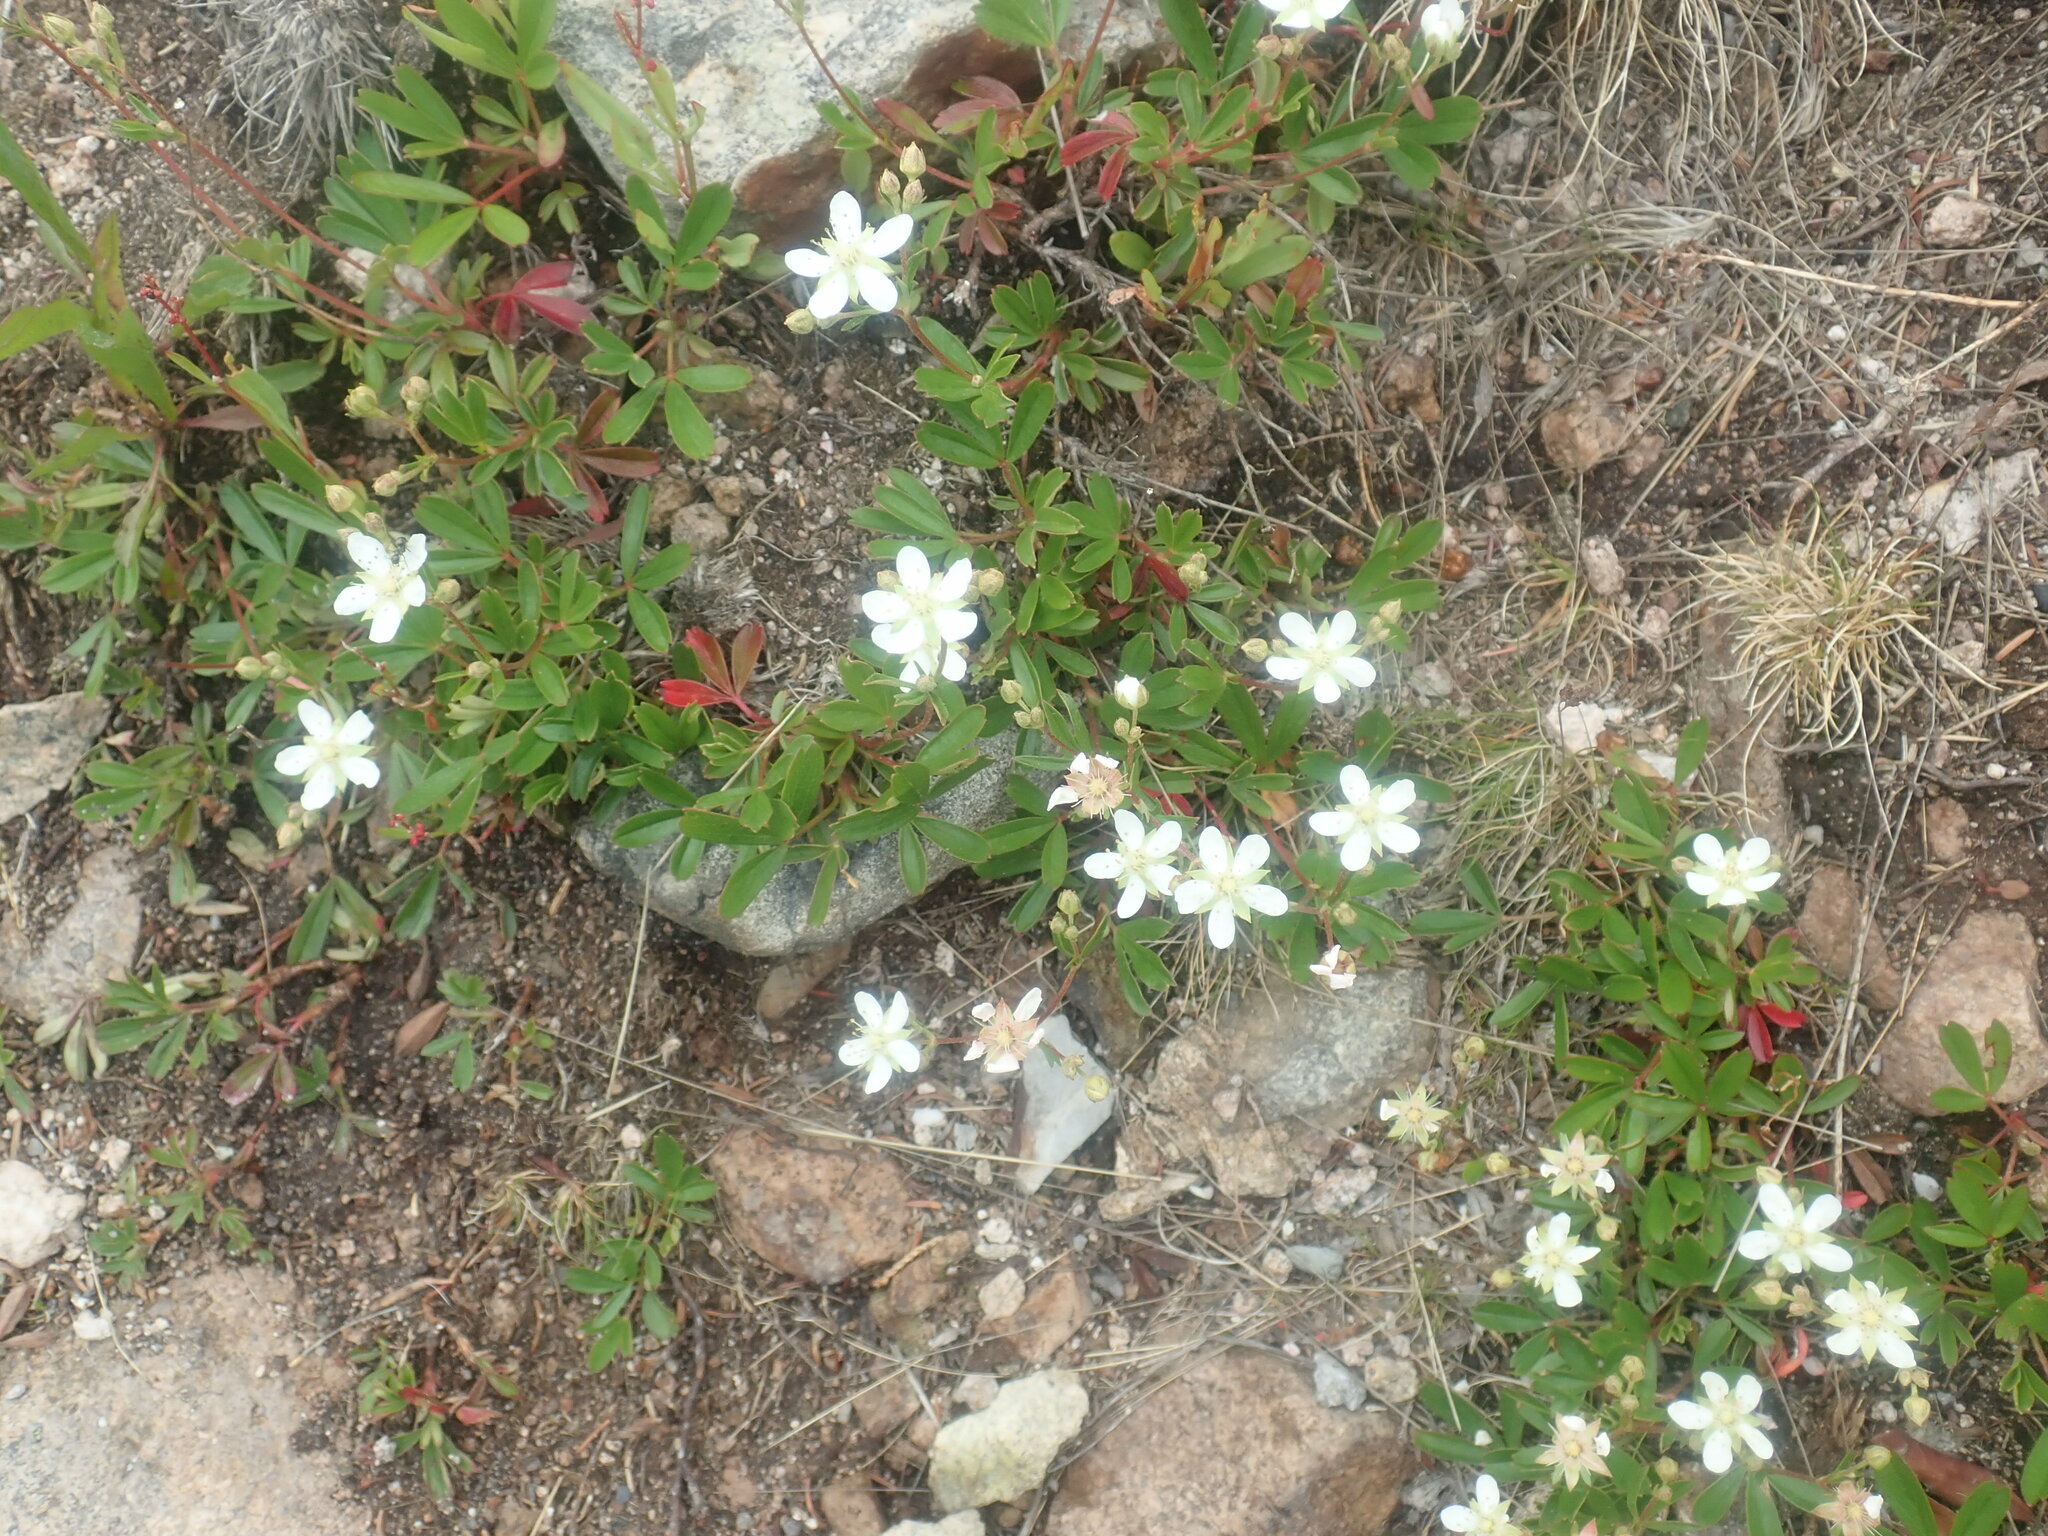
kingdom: Plantae
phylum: Tracheophyta
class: Magnoliopsida
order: Rosales
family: Rosaceae
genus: Sibbaldia
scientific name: Sibbaldia tridentata
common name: Three-toothed cinquefoil
